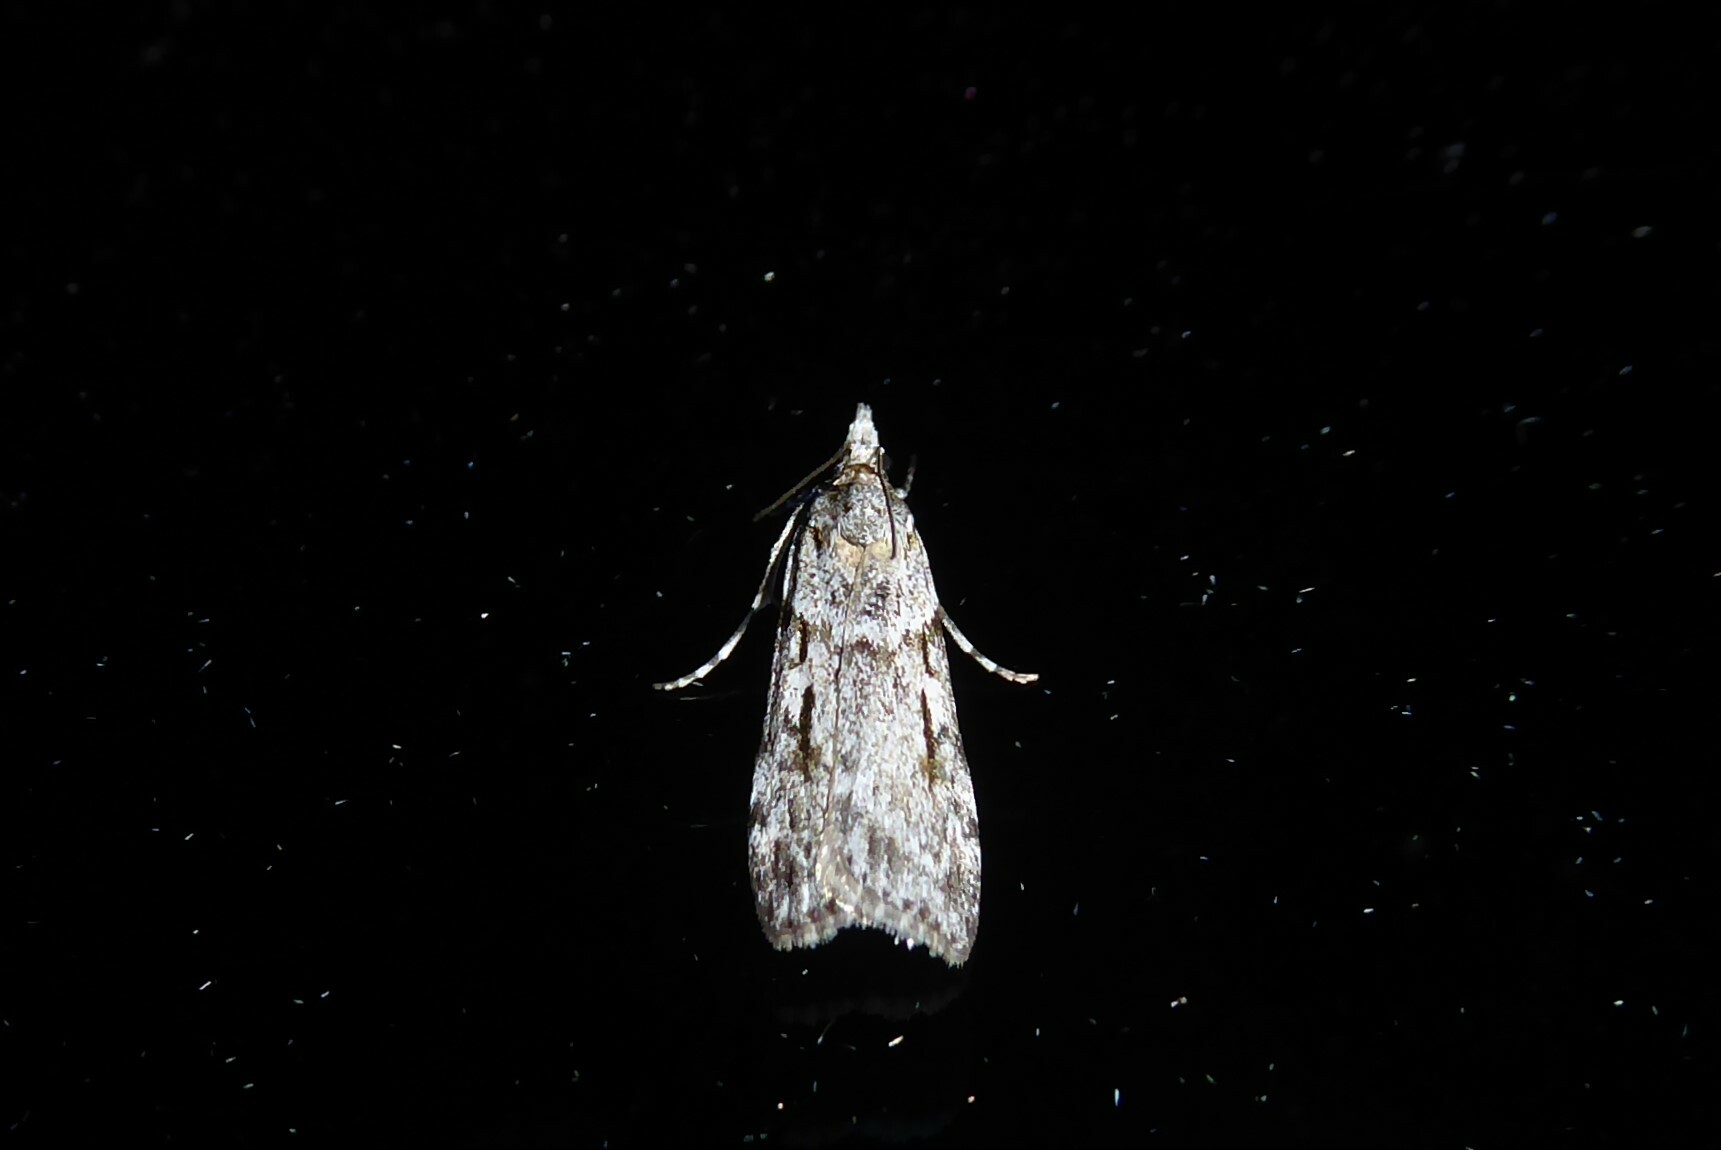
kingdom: Animalia
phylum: Arthropoda
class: Insecta
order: Lepidoptera
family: Crambidae
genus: Scoparia
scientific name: Scoparia halopis
